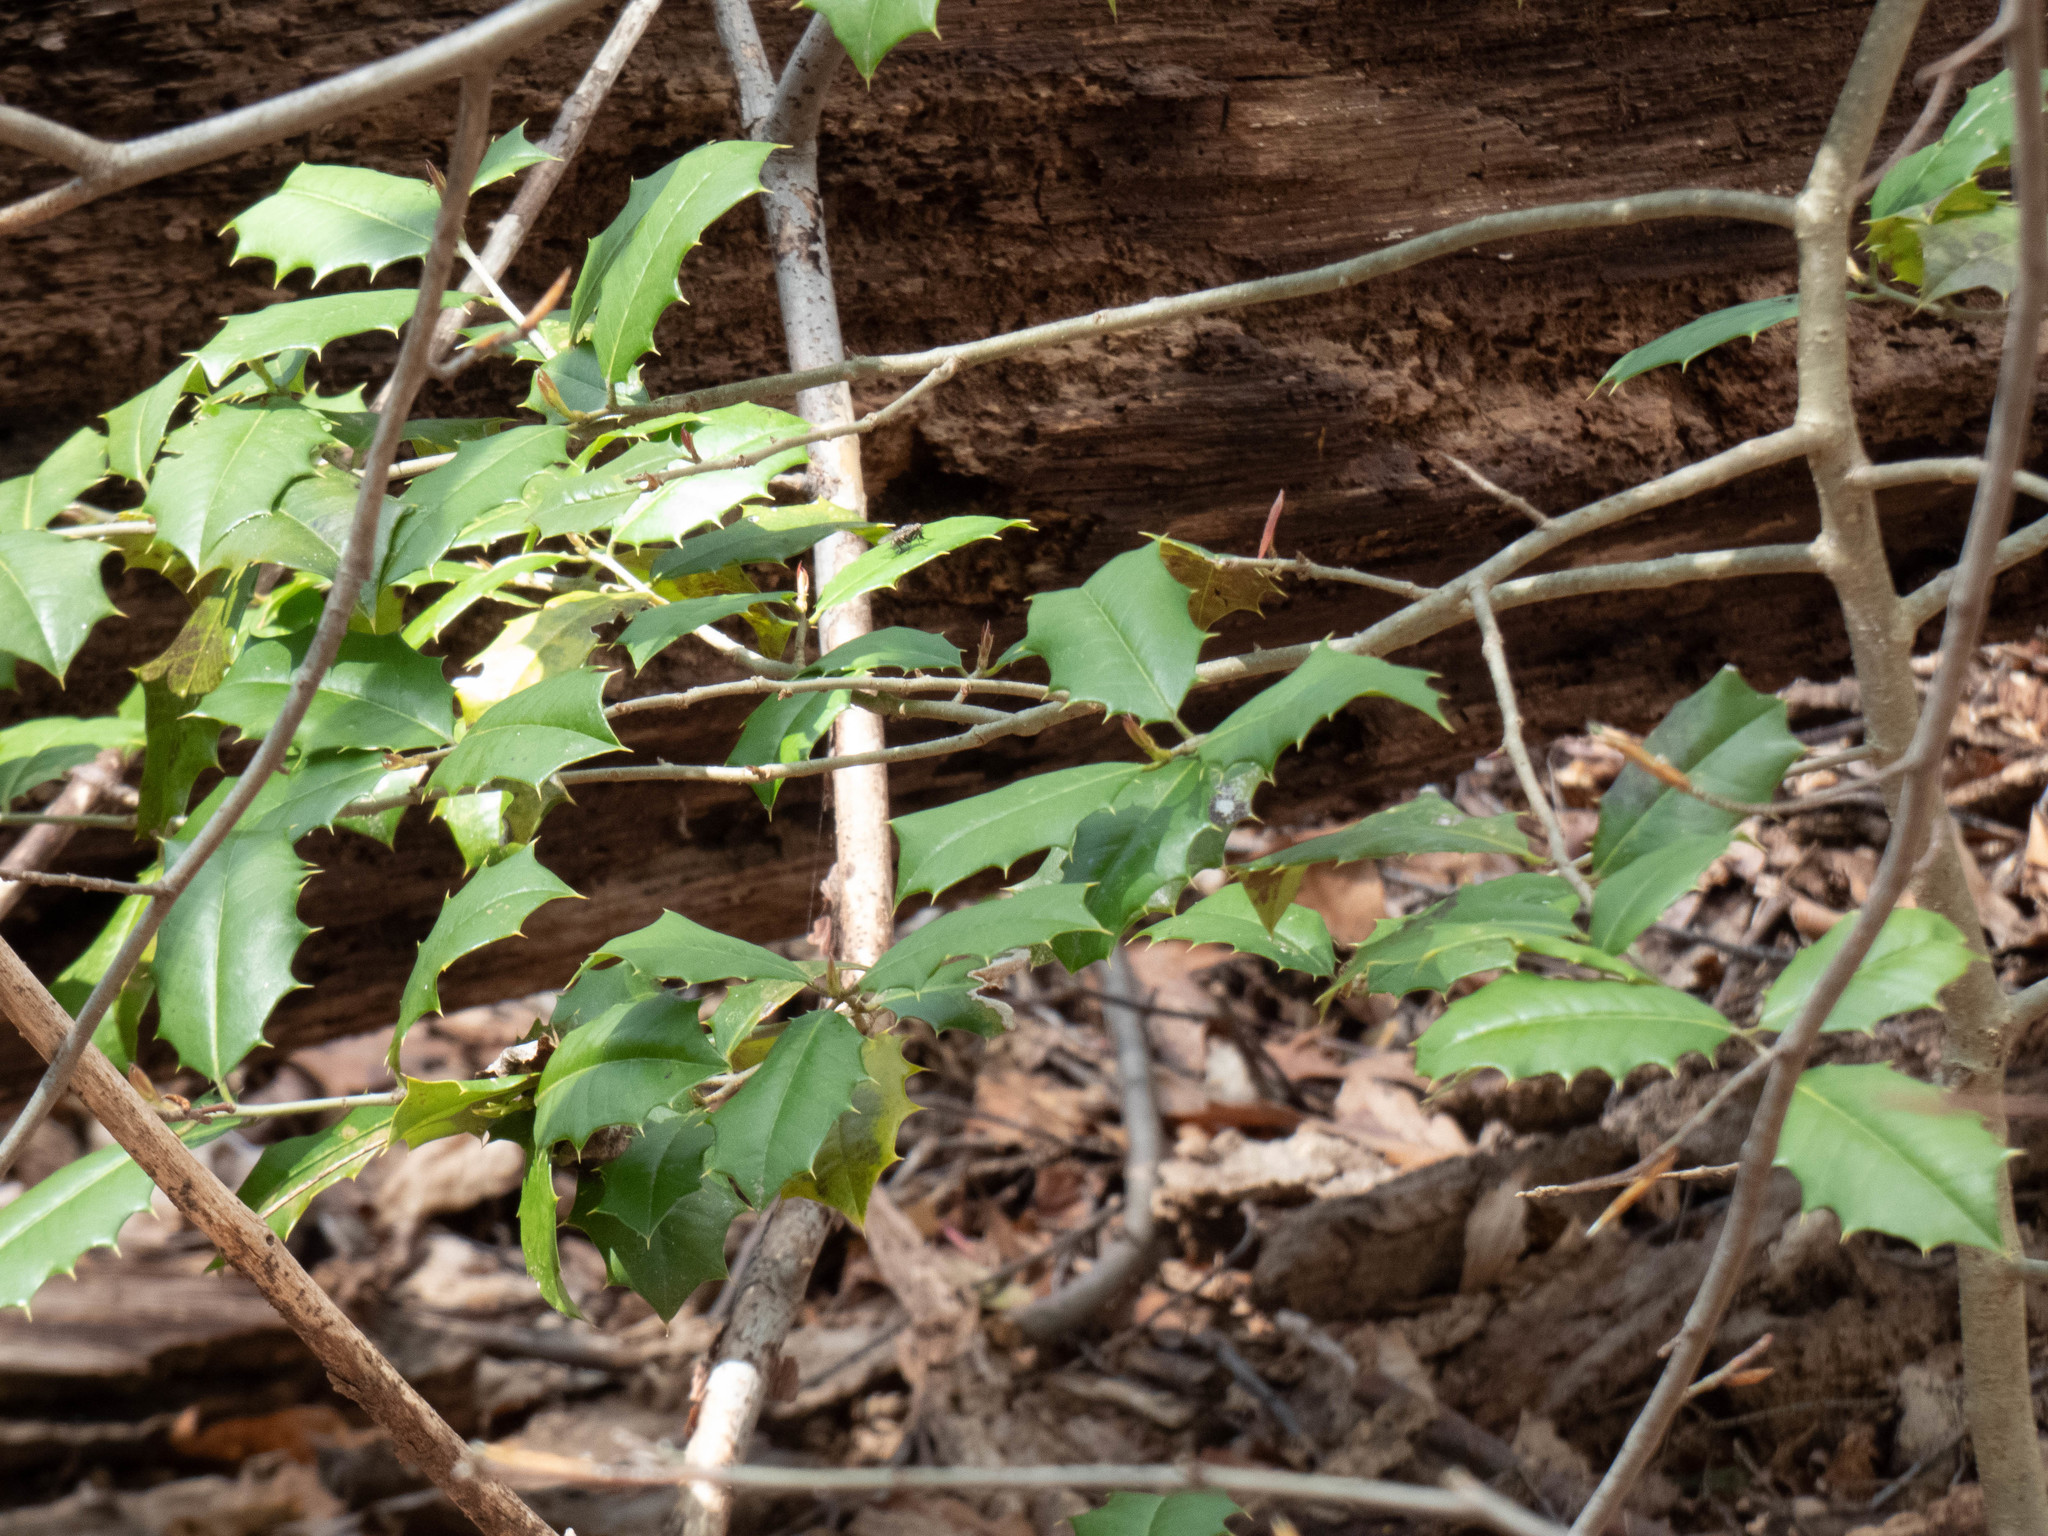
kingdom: Plantae
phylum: Tracheophyta
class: Magnoliopsida
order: Aquifoliales
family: Aquifoliaceae
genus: Ilex
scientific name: Ilex opaca
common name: American holly
